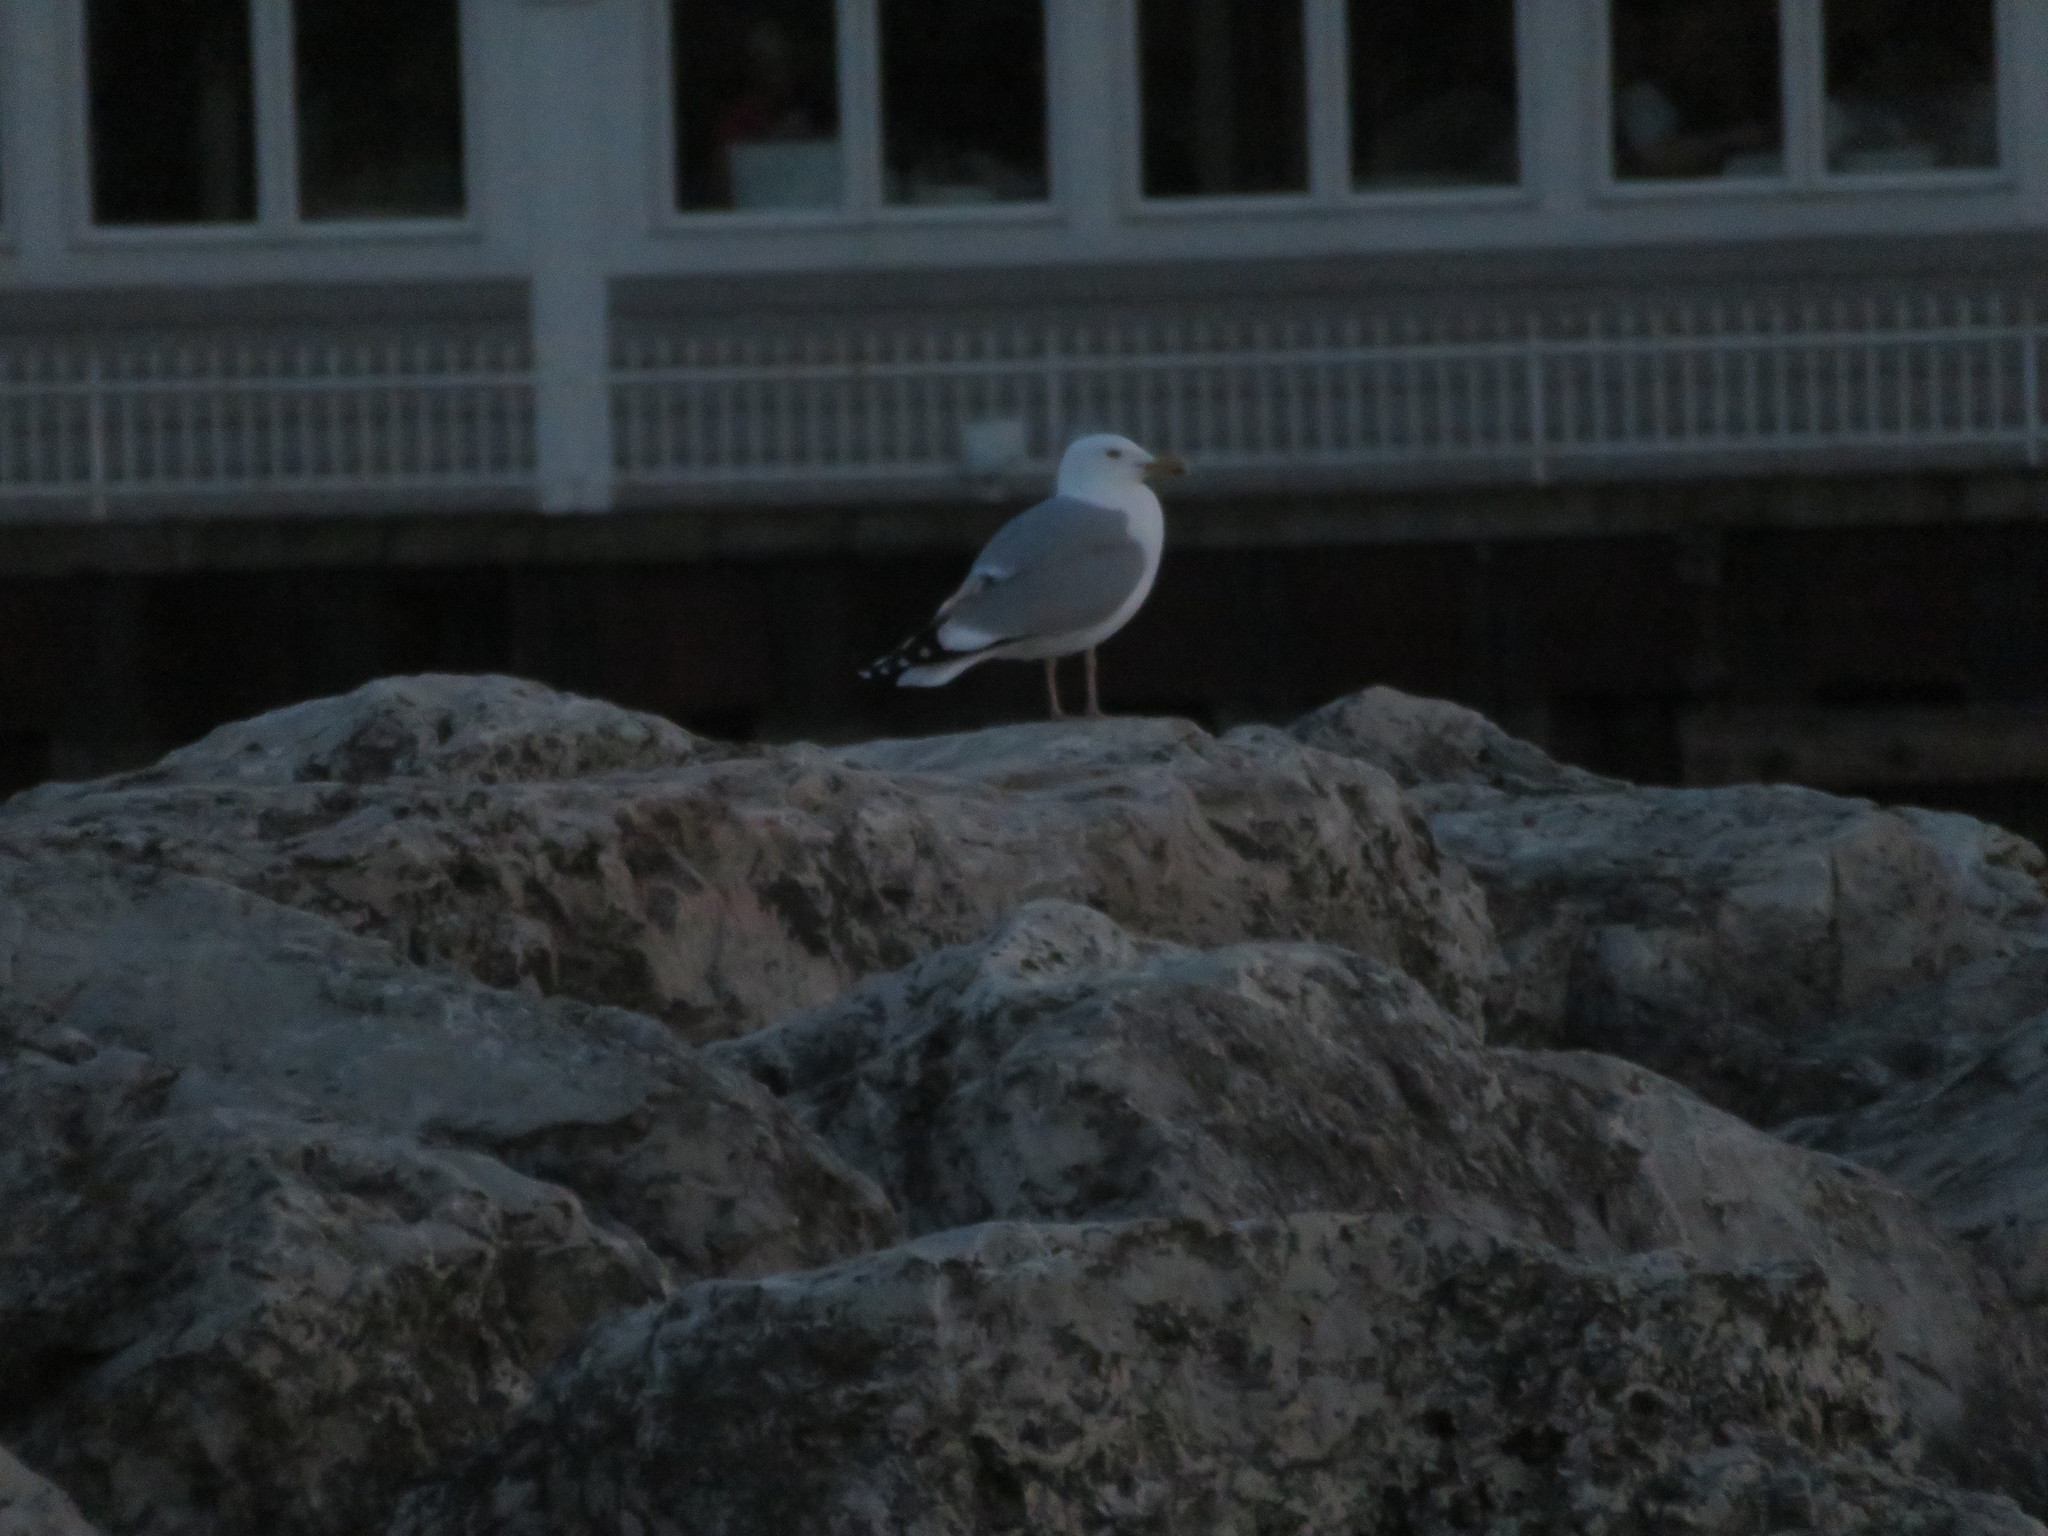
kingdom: Animalia
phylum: Chordata
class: Aves
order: Charadriiformes
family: Laridae
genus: Larus
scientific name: Larus argentatus
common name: Herring gull
